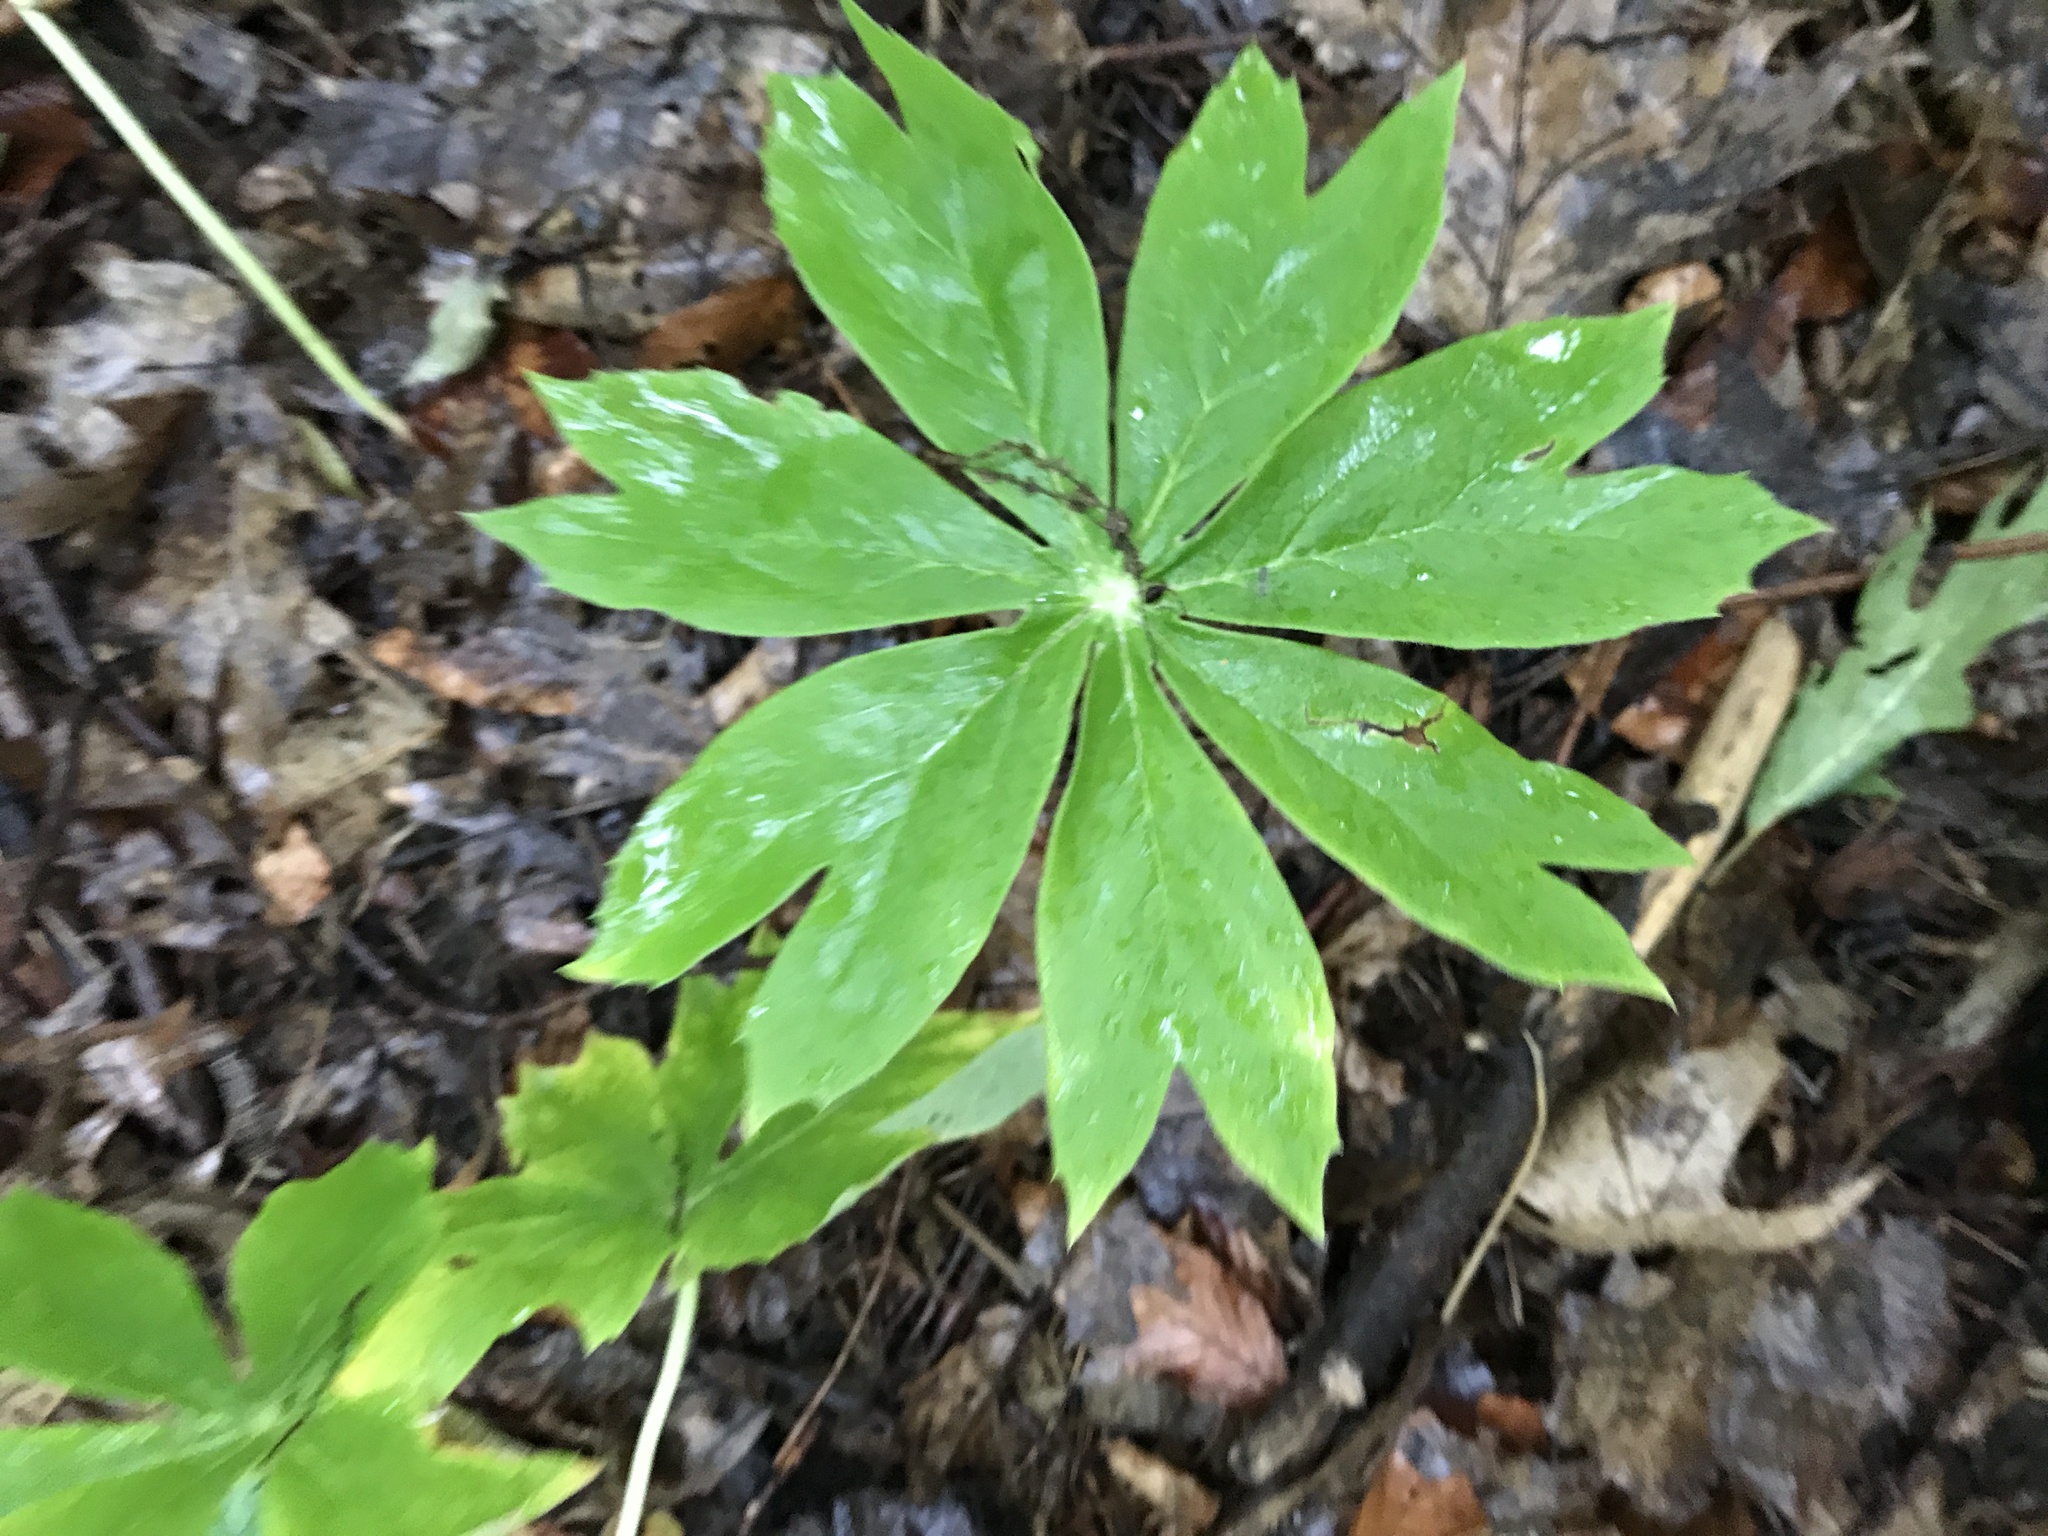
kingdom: Plantae
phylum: Tracheophyta
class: Magnoliopsida
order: Ranunculales
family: Berberidaceae
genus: Podophyllum
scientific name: Podophyllum peltatum
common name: Wild mandrake
